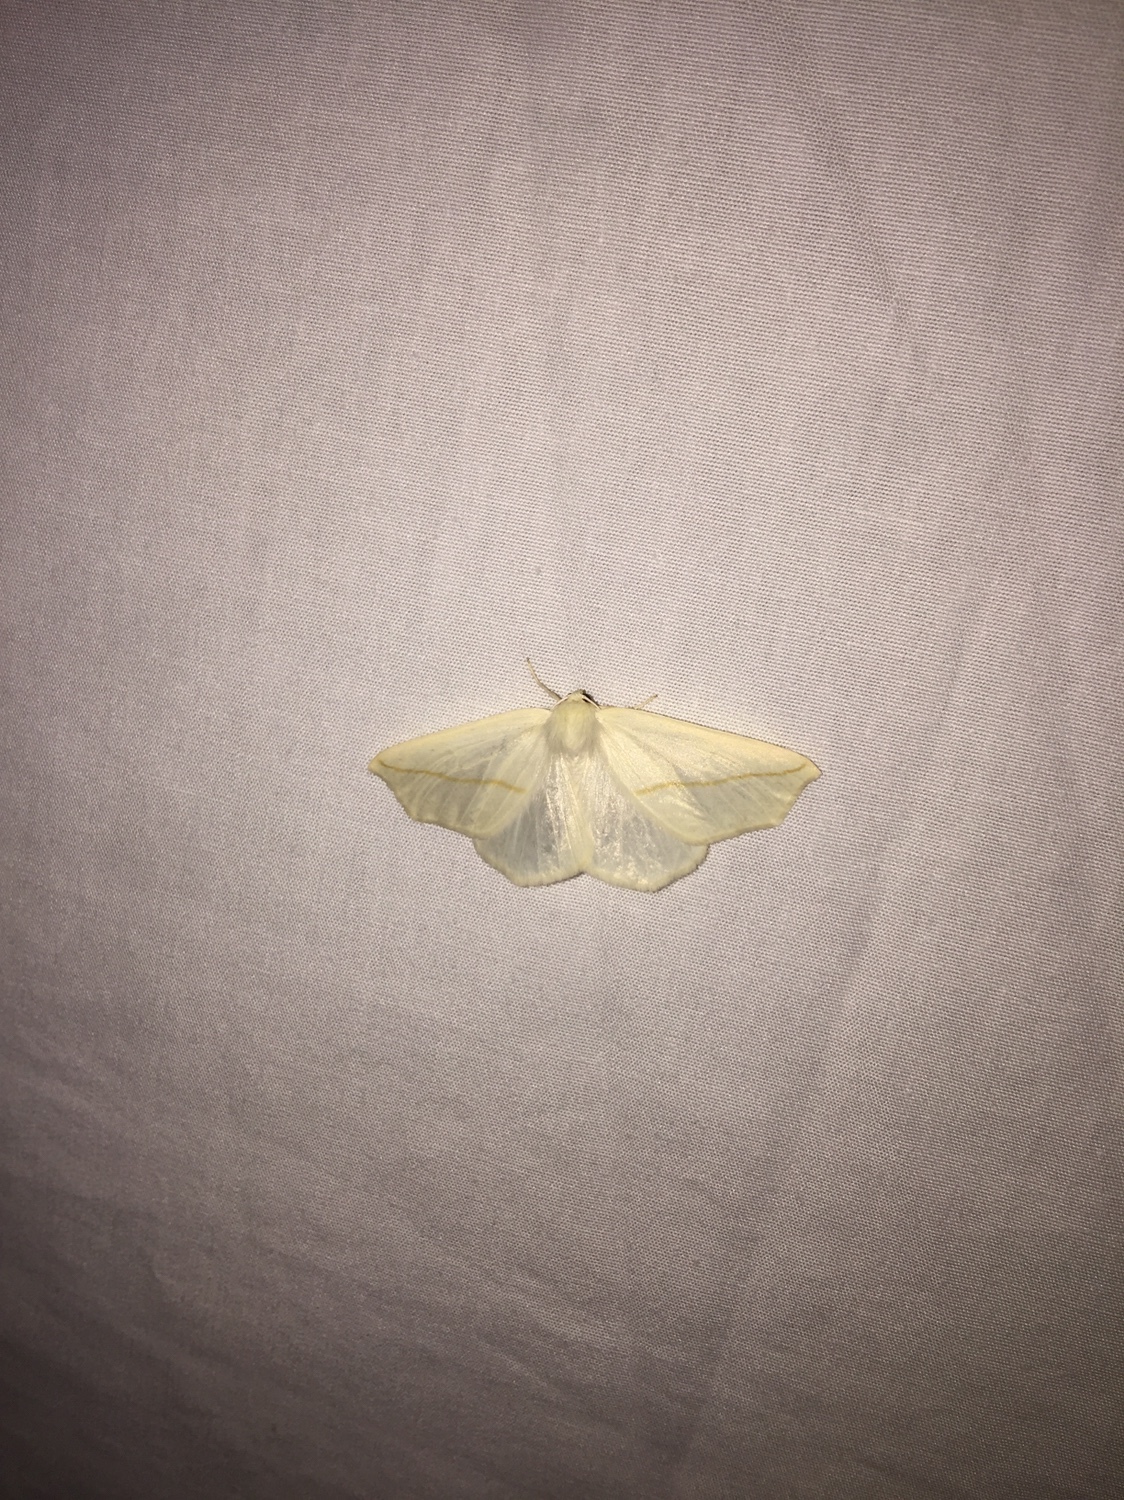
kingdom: Animalia
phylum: Arthropoda
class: Insecta
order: Lepidoptera
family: Geometridae
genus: Tetracis
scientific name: Tetracis cachexiata
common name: White slant-line
